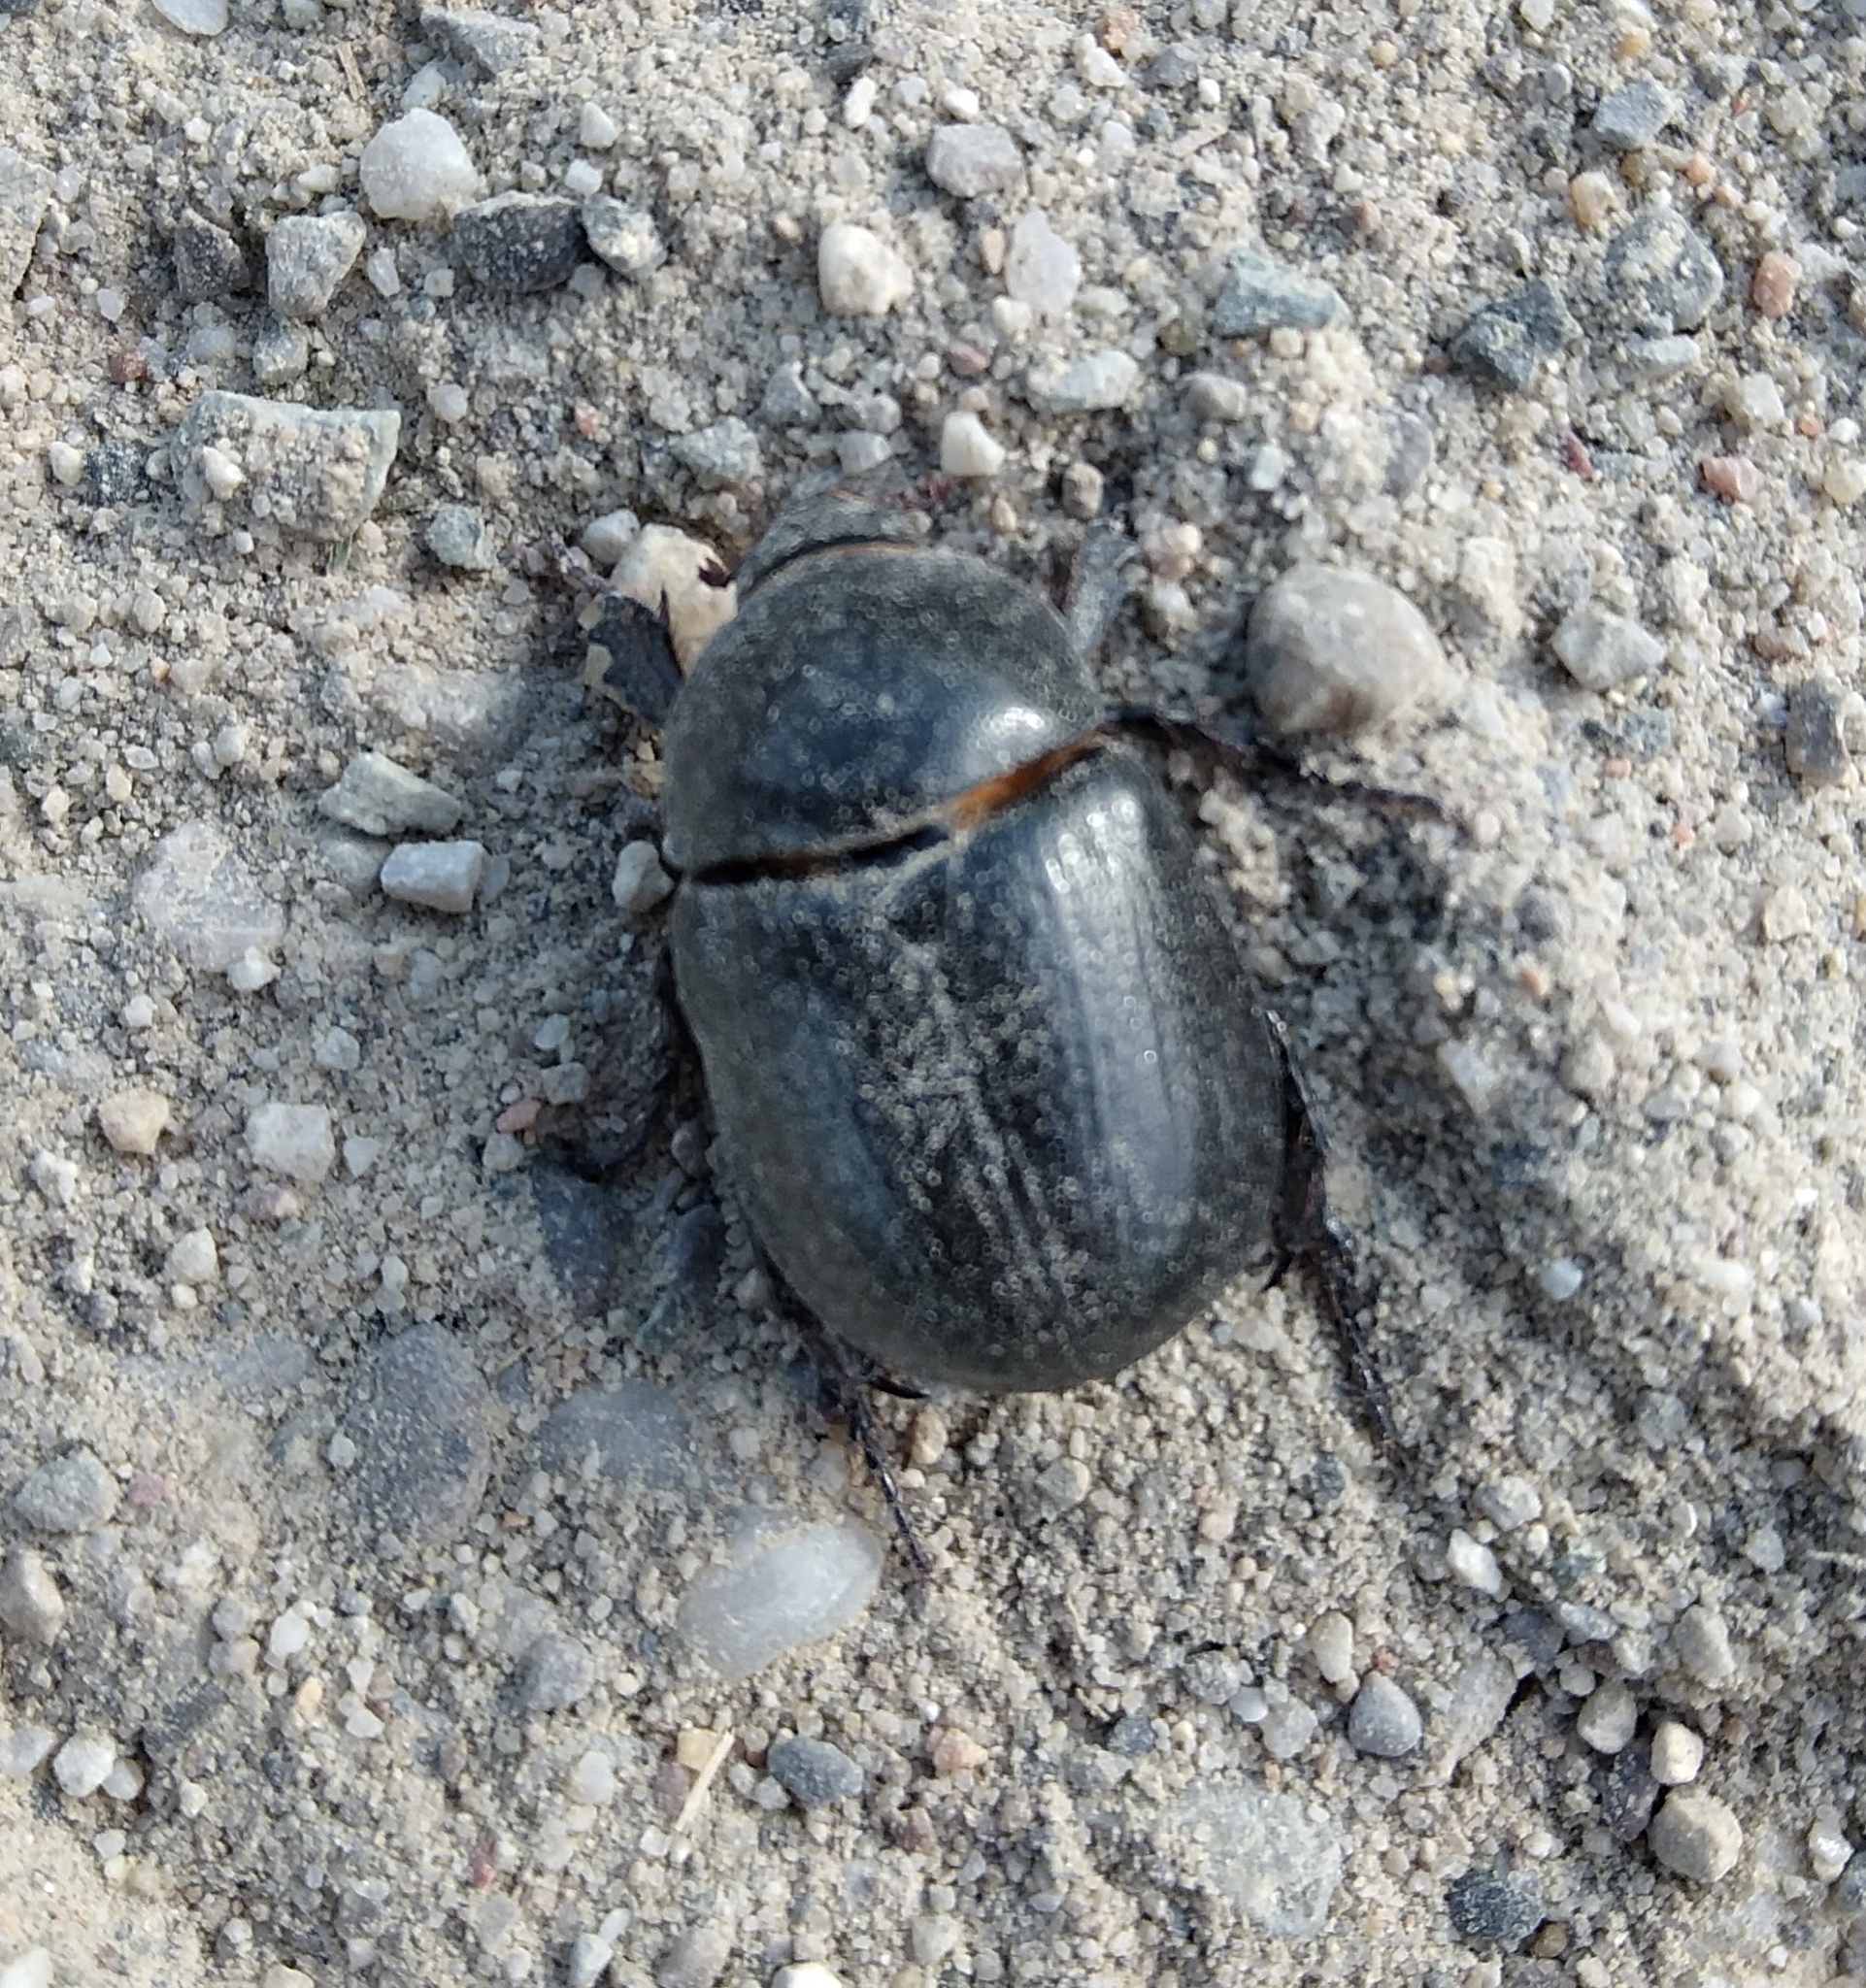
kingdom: Animalia
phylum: Arthropoda
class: Insecta
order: Coleoptera
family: Scarabaeidae
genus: Pentodon
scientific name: Pentodon bidens
